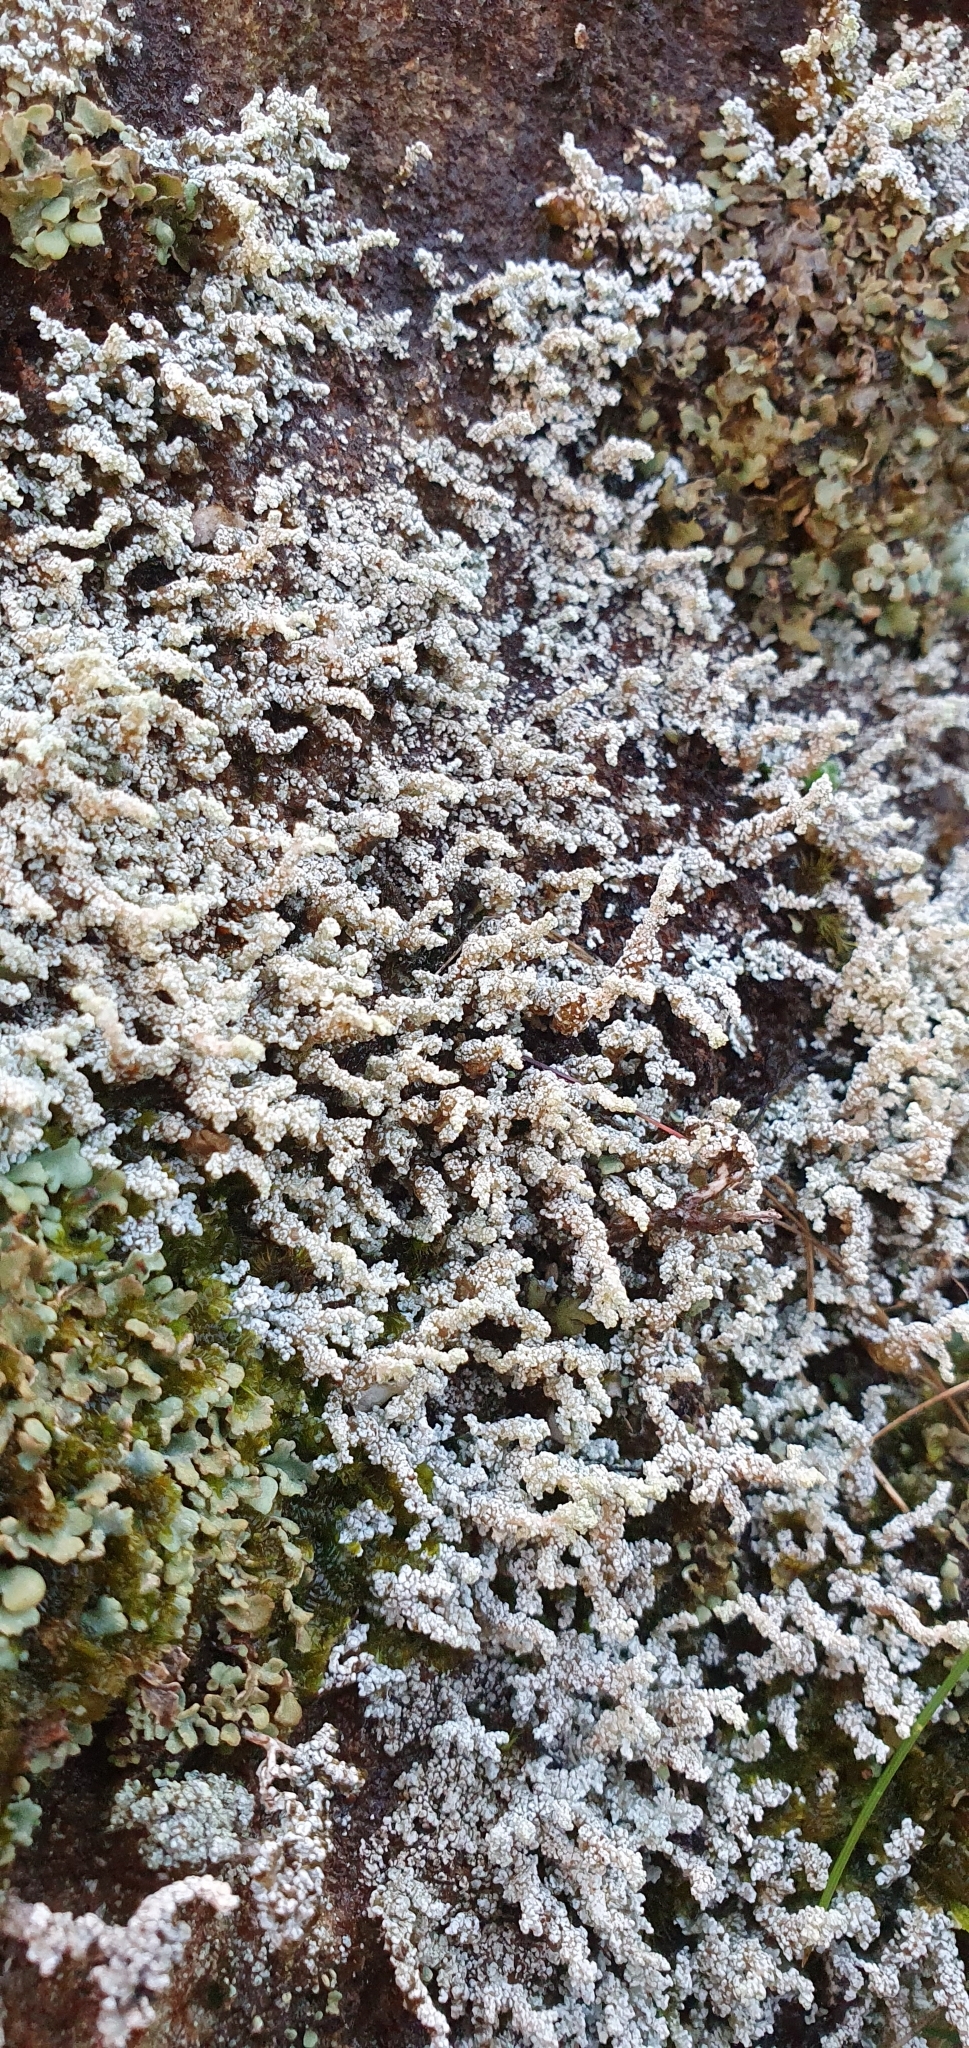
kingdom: Fungi
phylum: Ascomycota
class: Lecanoromycetes
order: Lecanorales
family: Stereocaulaceae
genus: Stereocaulon
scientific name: Stereocaulon vesuvianum
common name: Variegated foam lichen
